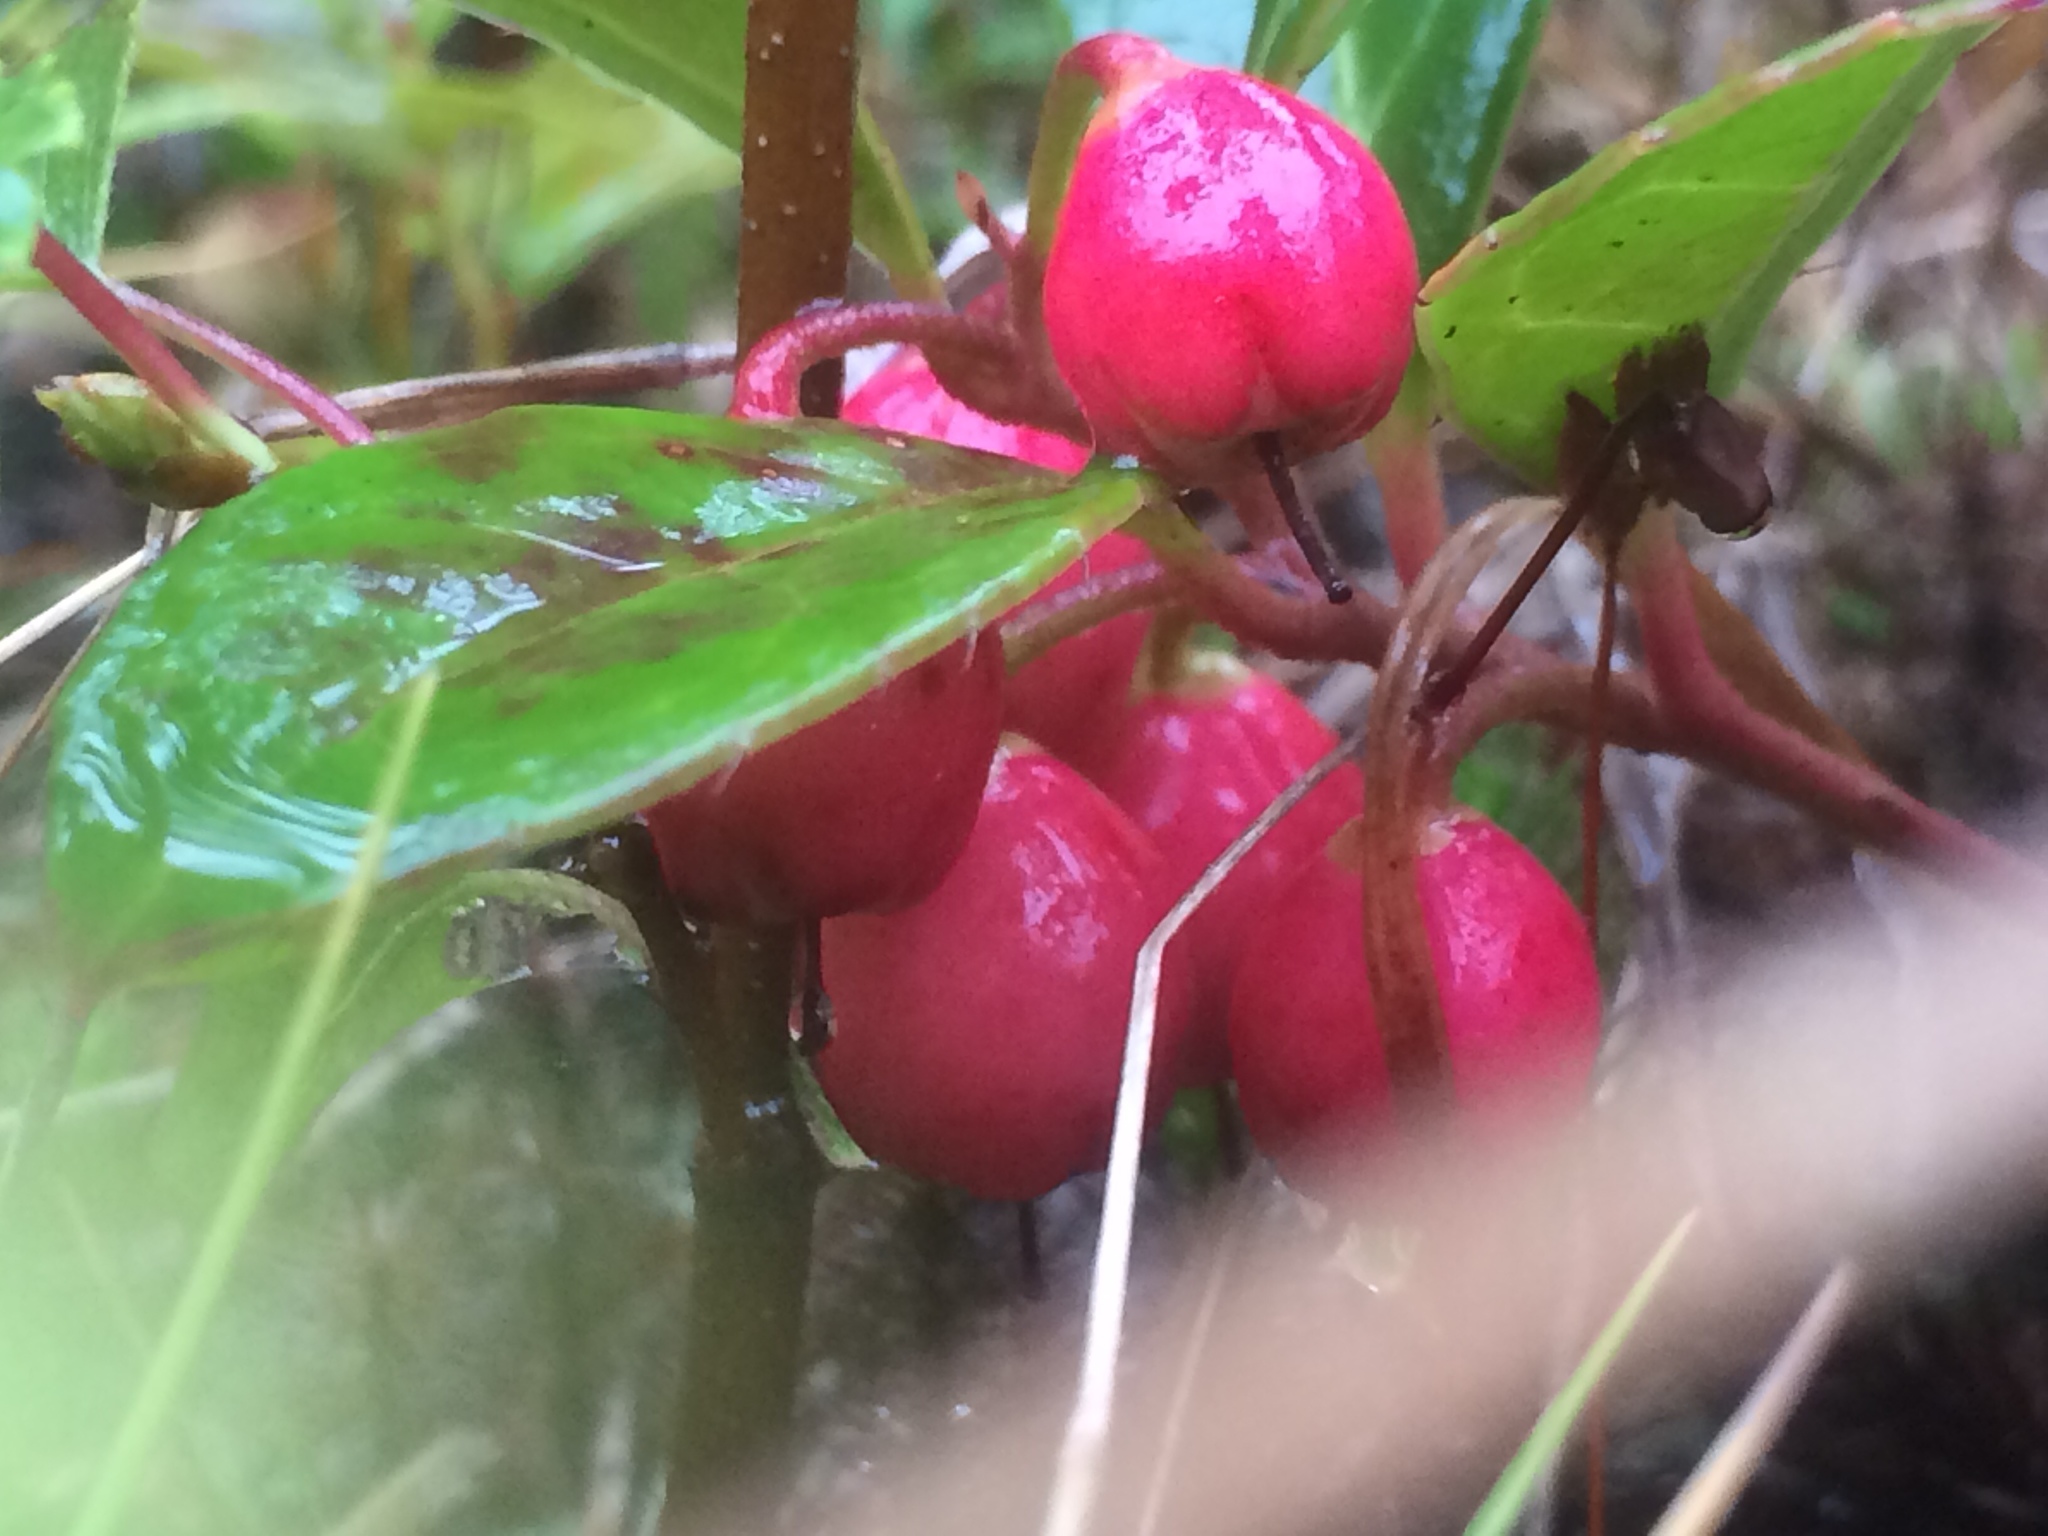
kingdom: Plantae
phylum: Tracheophyta
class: Magnoliopsida
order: Ericales
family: Ericaceae
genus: Gaultheria
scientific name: Gaultheria procumbens
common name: Checkerberry
